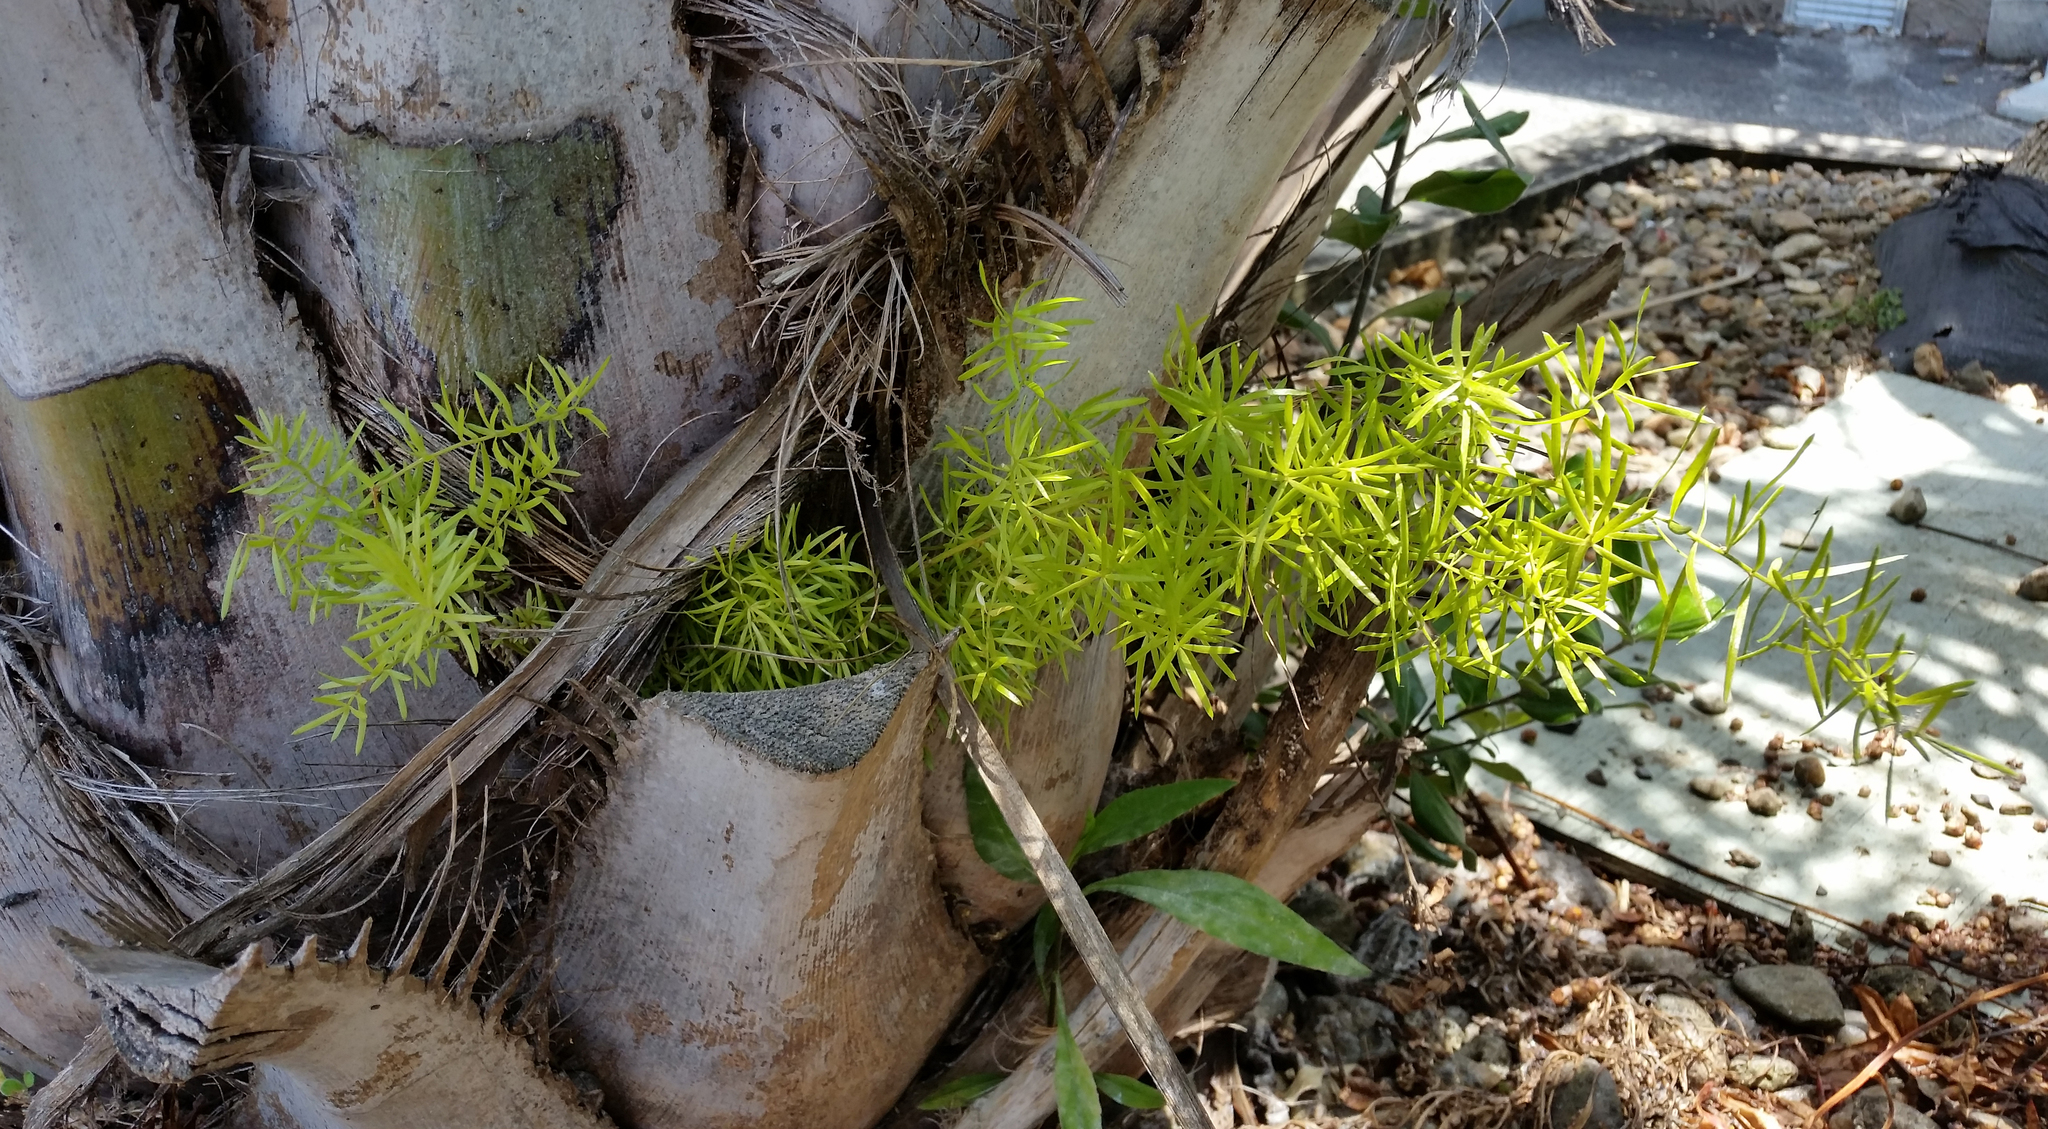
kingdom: Plantae
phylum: Tracheophyta
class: Liliopsida
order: Asparagales
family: Asparagaceae
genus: Asparagus
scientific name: Asparagus aethiopicus
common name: Sprenger's asparagus fern
